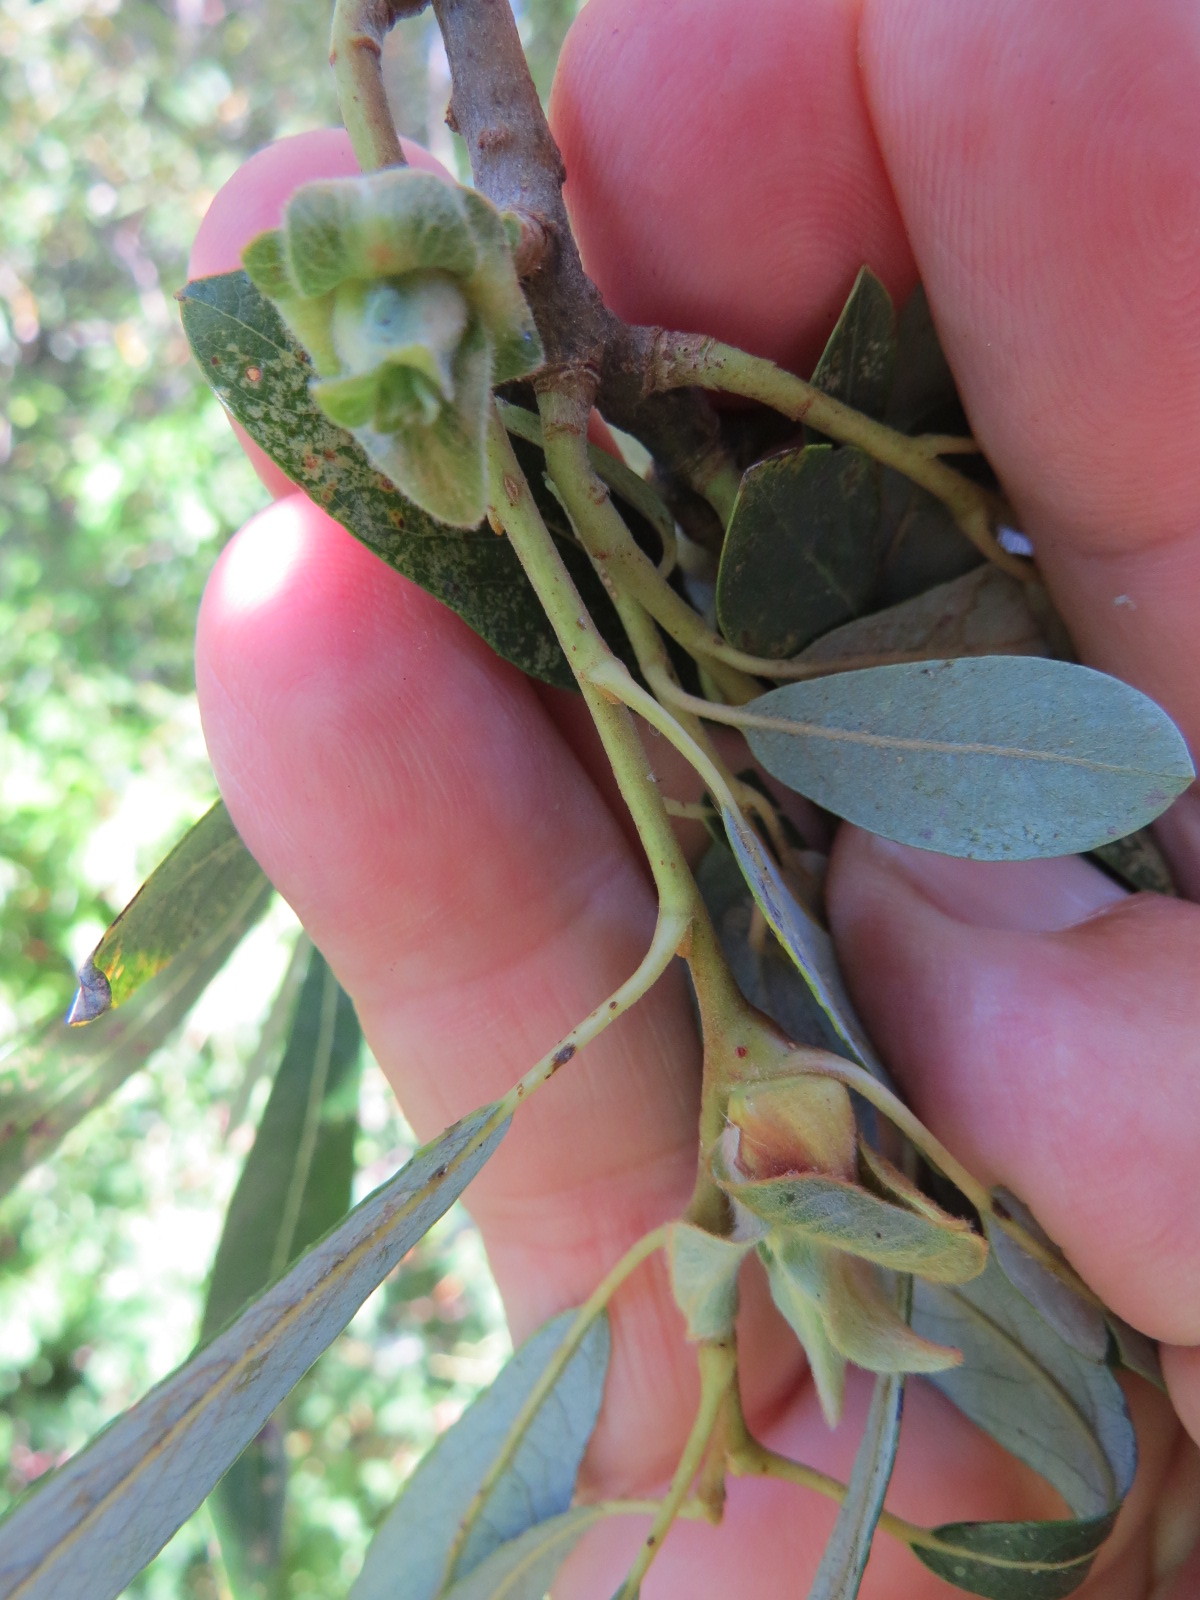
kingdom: Animalia
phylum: Arthropoda
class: Insecta
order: Diptera
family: Cecidomyiidae
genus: Rabdophaga
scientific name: Rabdophaga salicisbrassicoides
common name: Willow cabbagegall midge
